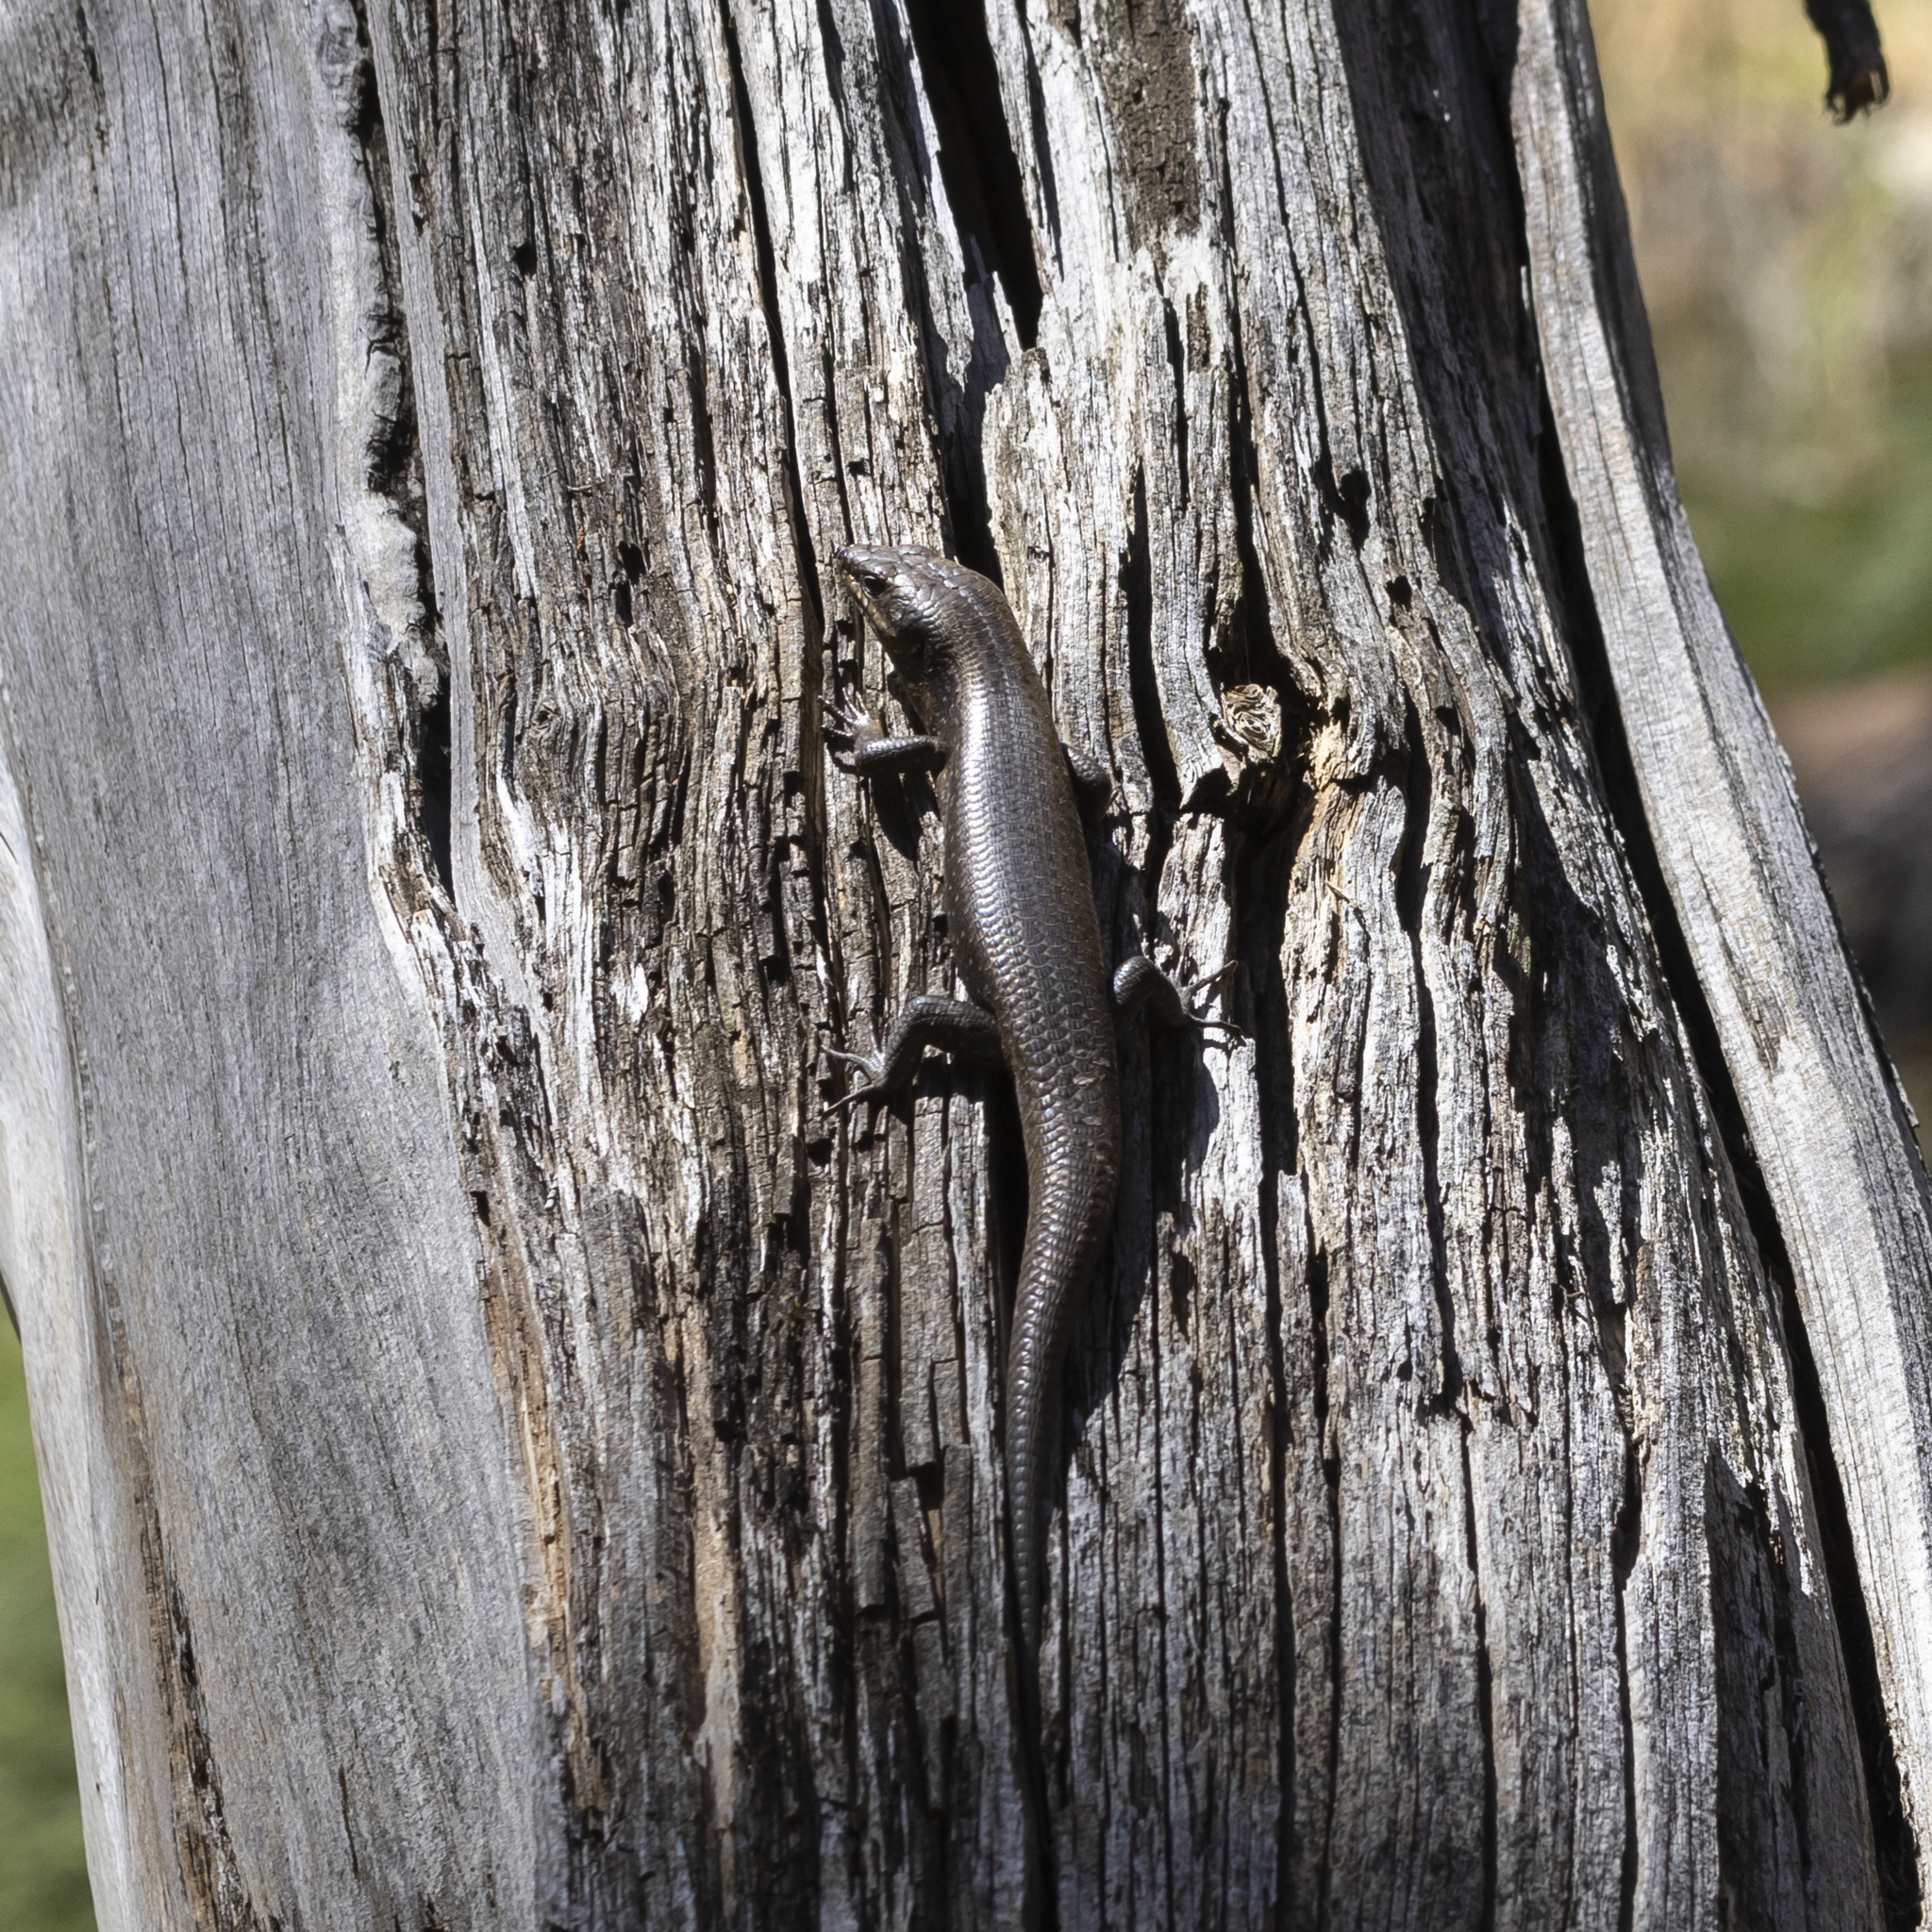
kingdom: Animalia
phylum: Chordata
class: Squamata
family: Scincidae
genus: Egernia
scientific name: Egernia striolata
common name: Tree skink
